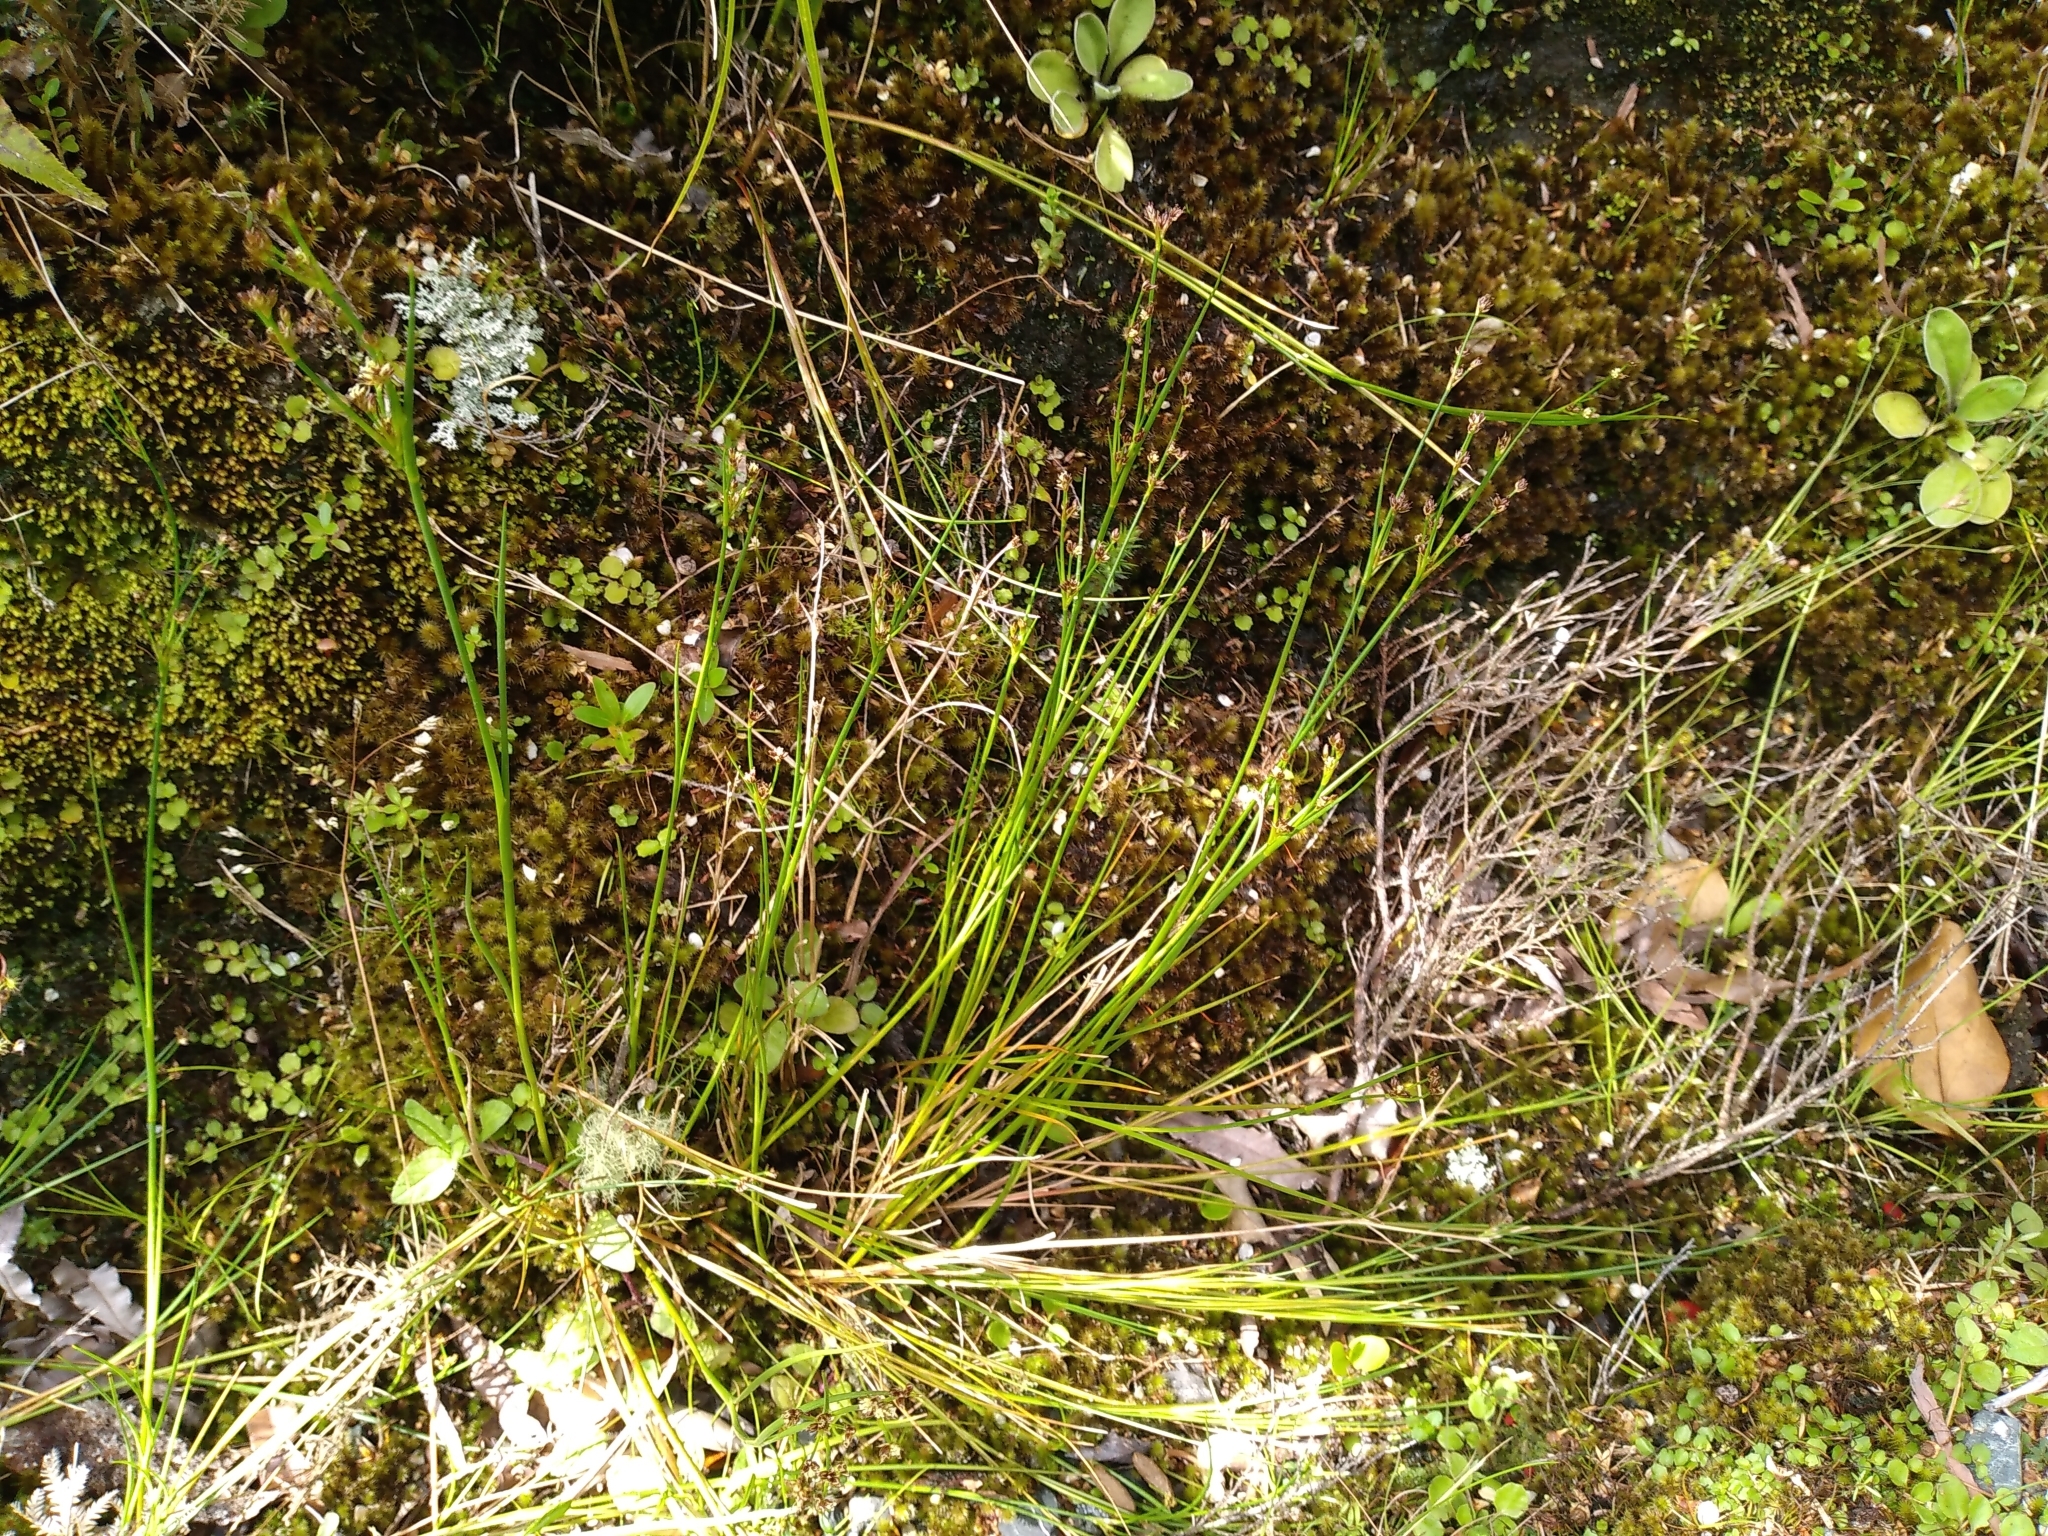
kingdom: Plantae
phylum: Tracheophyta
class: Liliopsida
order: Poales
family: Juncaceae
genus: Juncus
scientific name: Juncus articulatus
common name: Jointed rush
